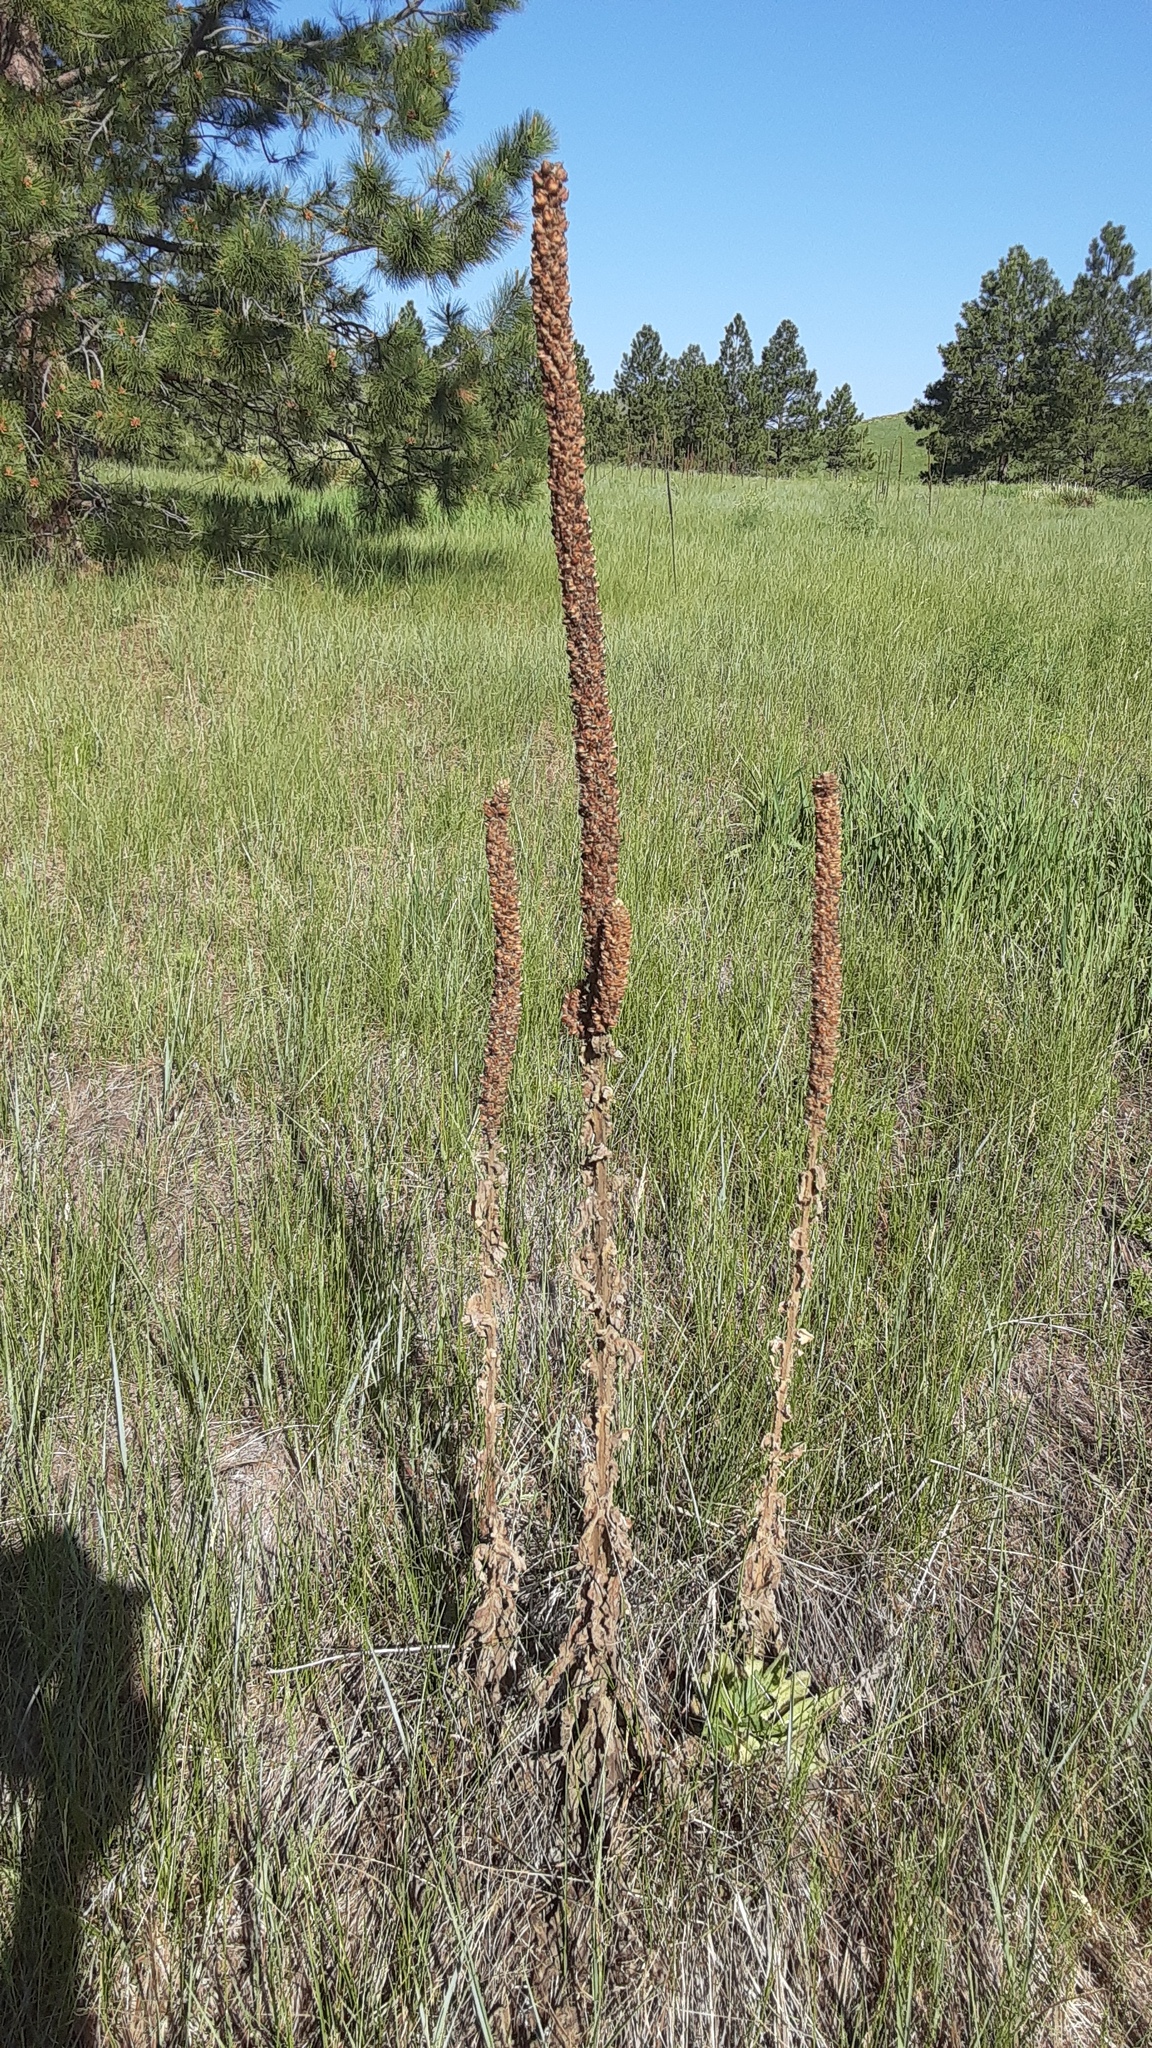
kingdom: Plantae
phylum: Tracheophyta
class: Magnoliopsida
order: Lamiales
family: Scrophulariaceae
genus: Verbascum
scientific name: Verbascum thapsus
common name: Common mullein
